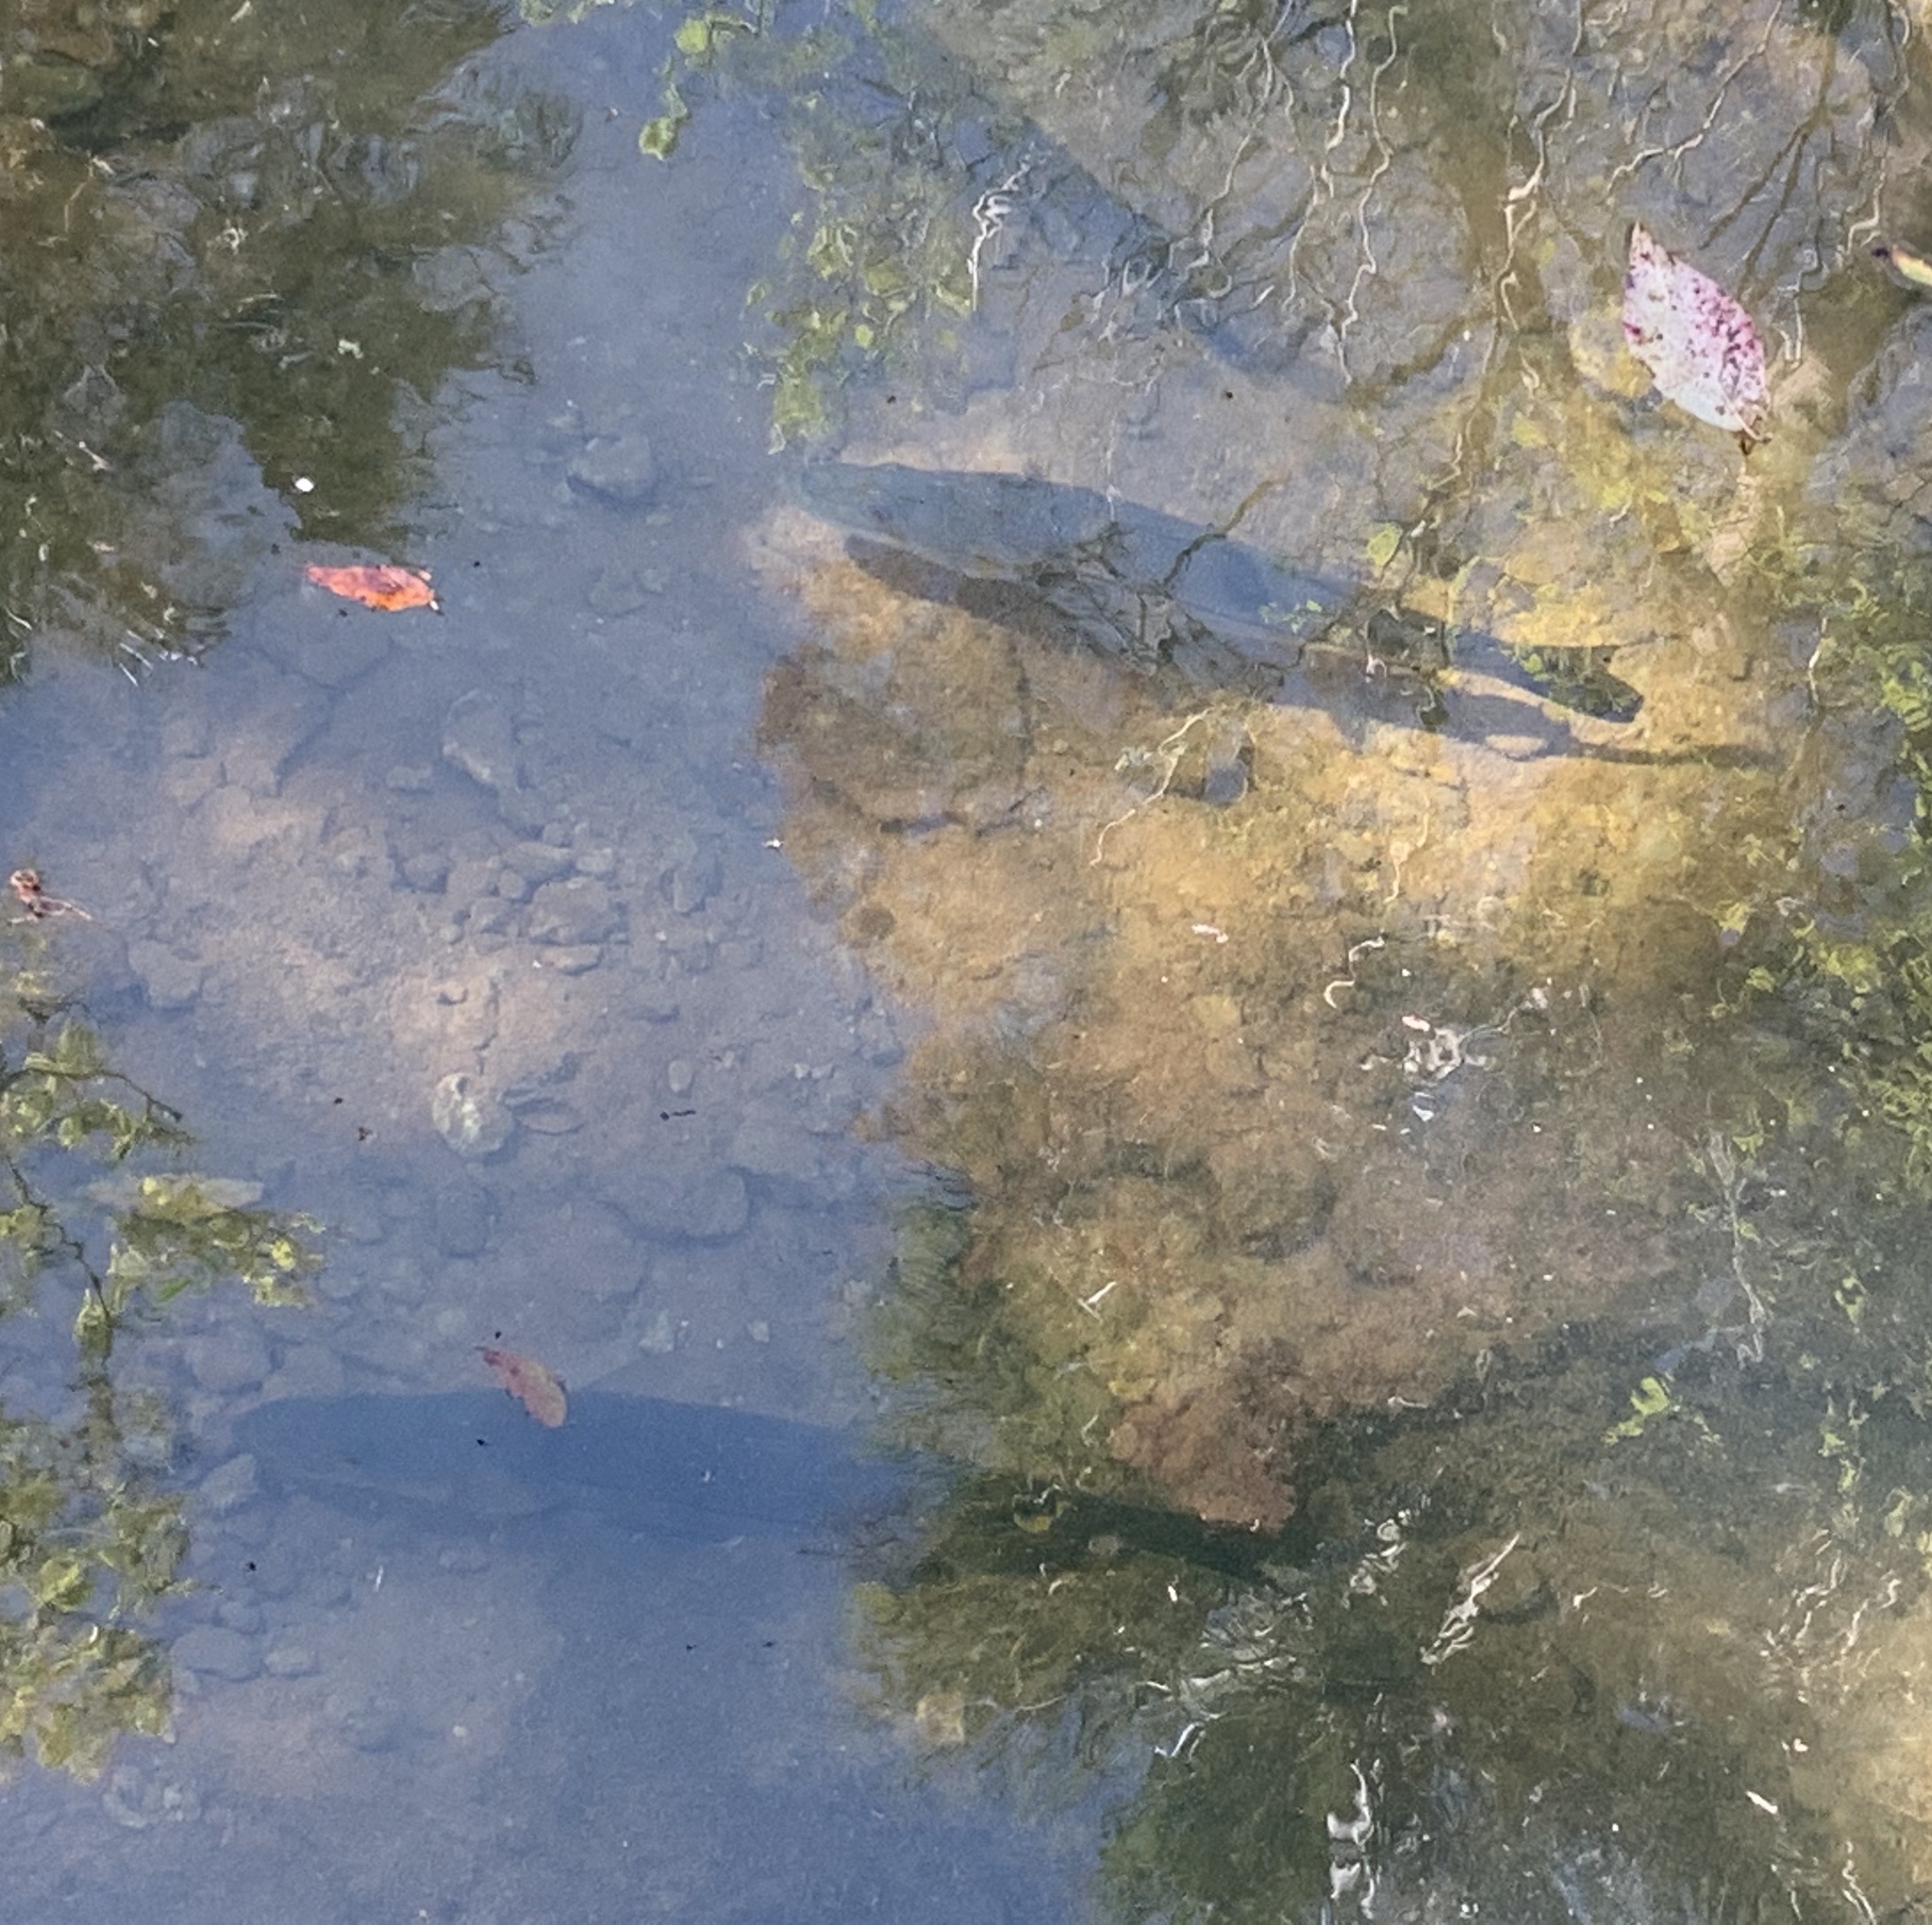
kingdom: Animalia
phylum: Chordata
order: Perciformes
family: Centropomidae
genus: Centropomus
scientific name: Centropomus undecimalis
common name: Snook
